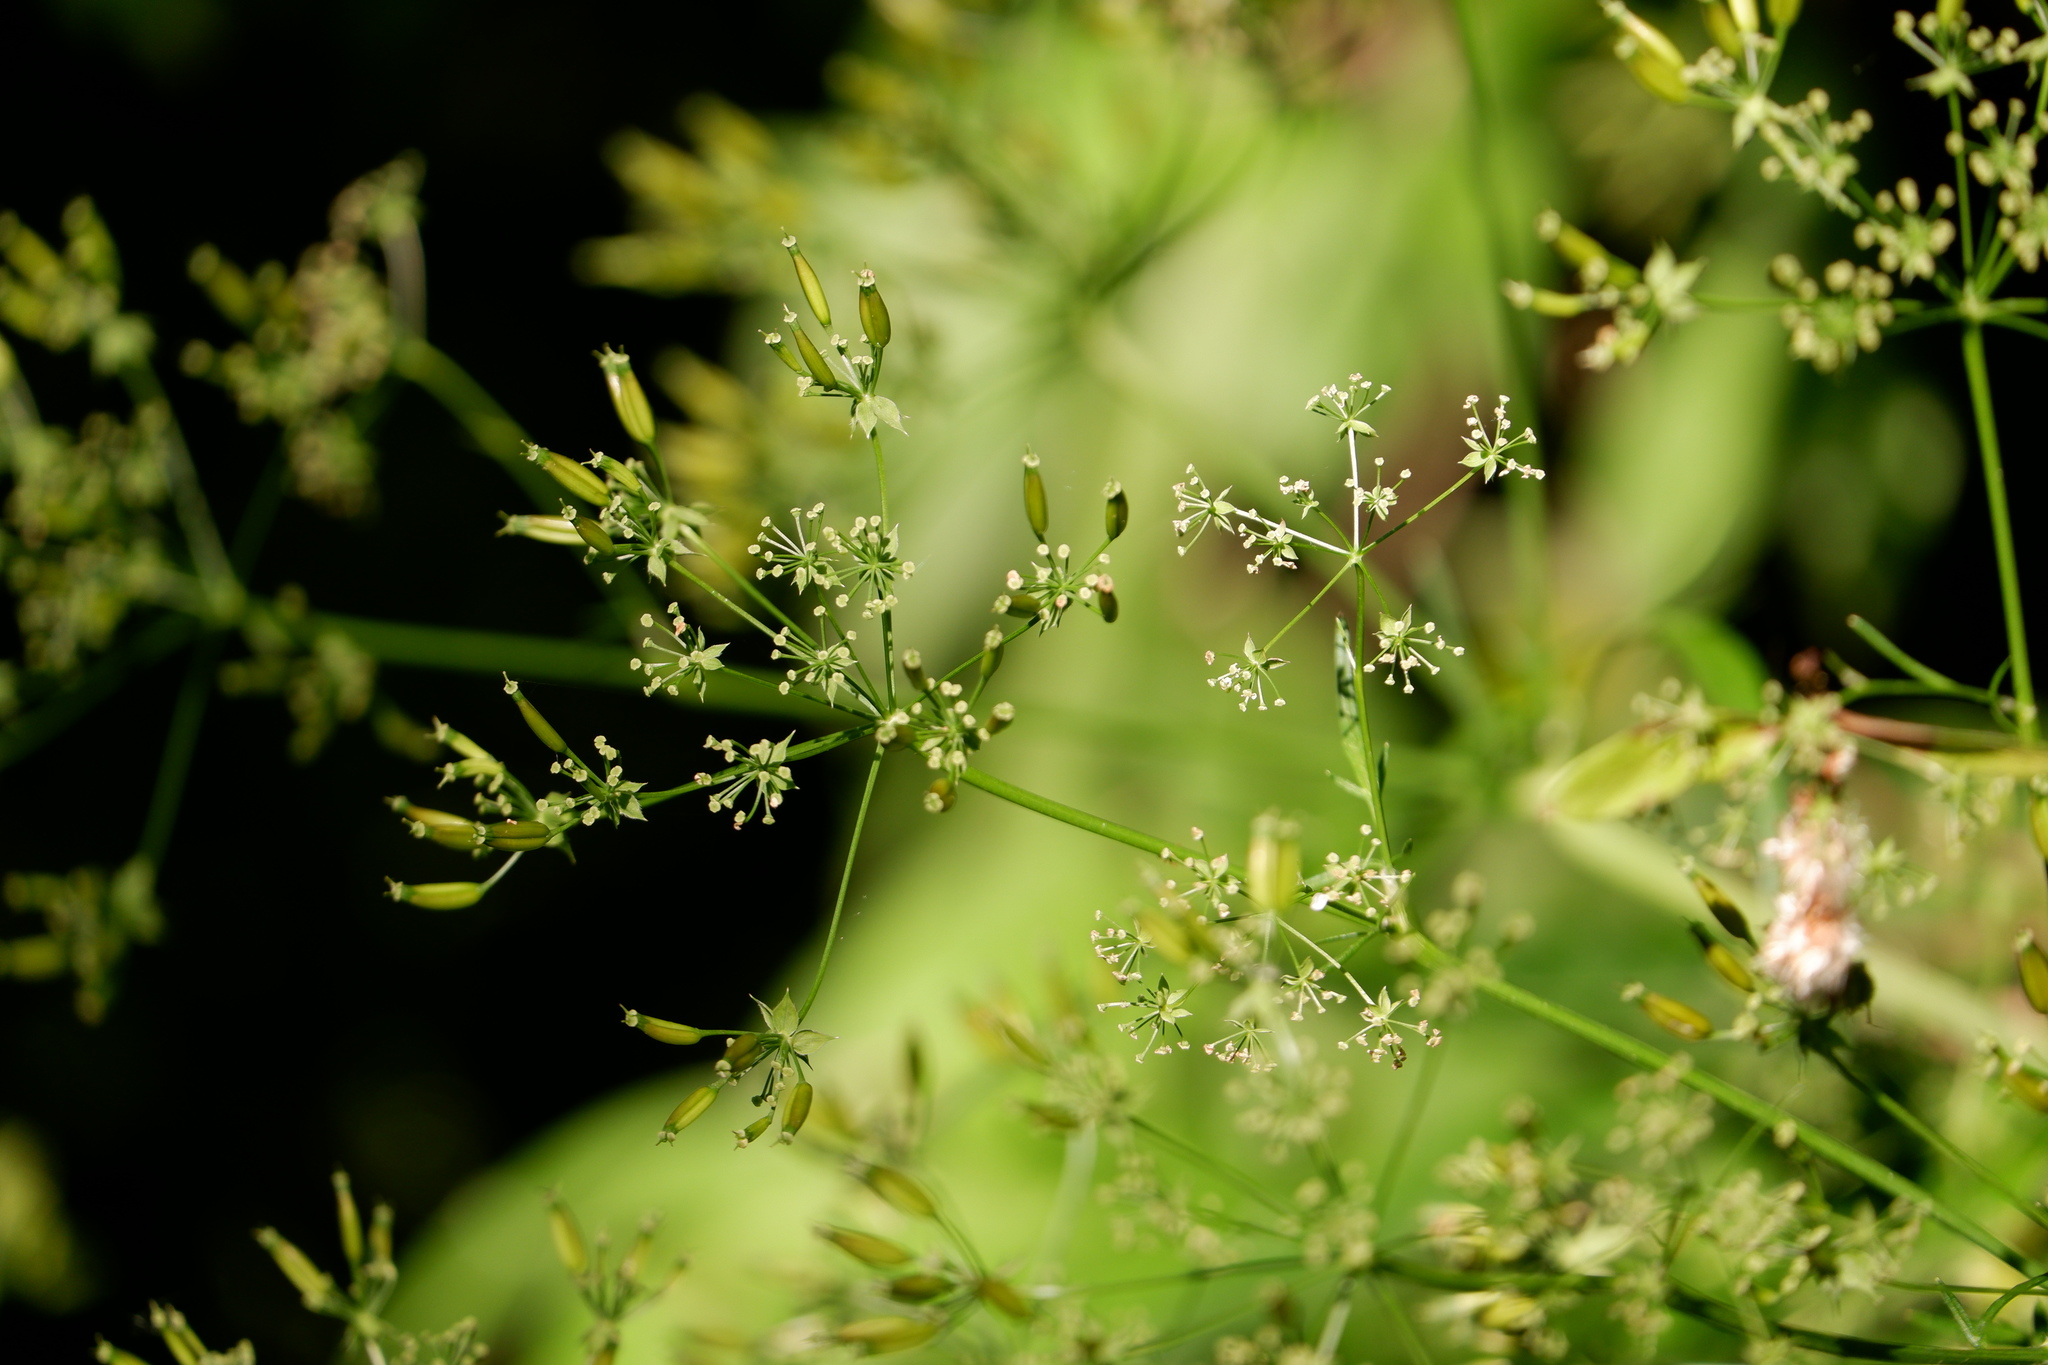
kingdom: Plantae
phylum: Tracheophyta
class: Magnoliopsida
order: Apiales
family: Apiaceae
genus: Anthriscus
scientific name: Anthriscus sylvestris
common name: Cow parsley
